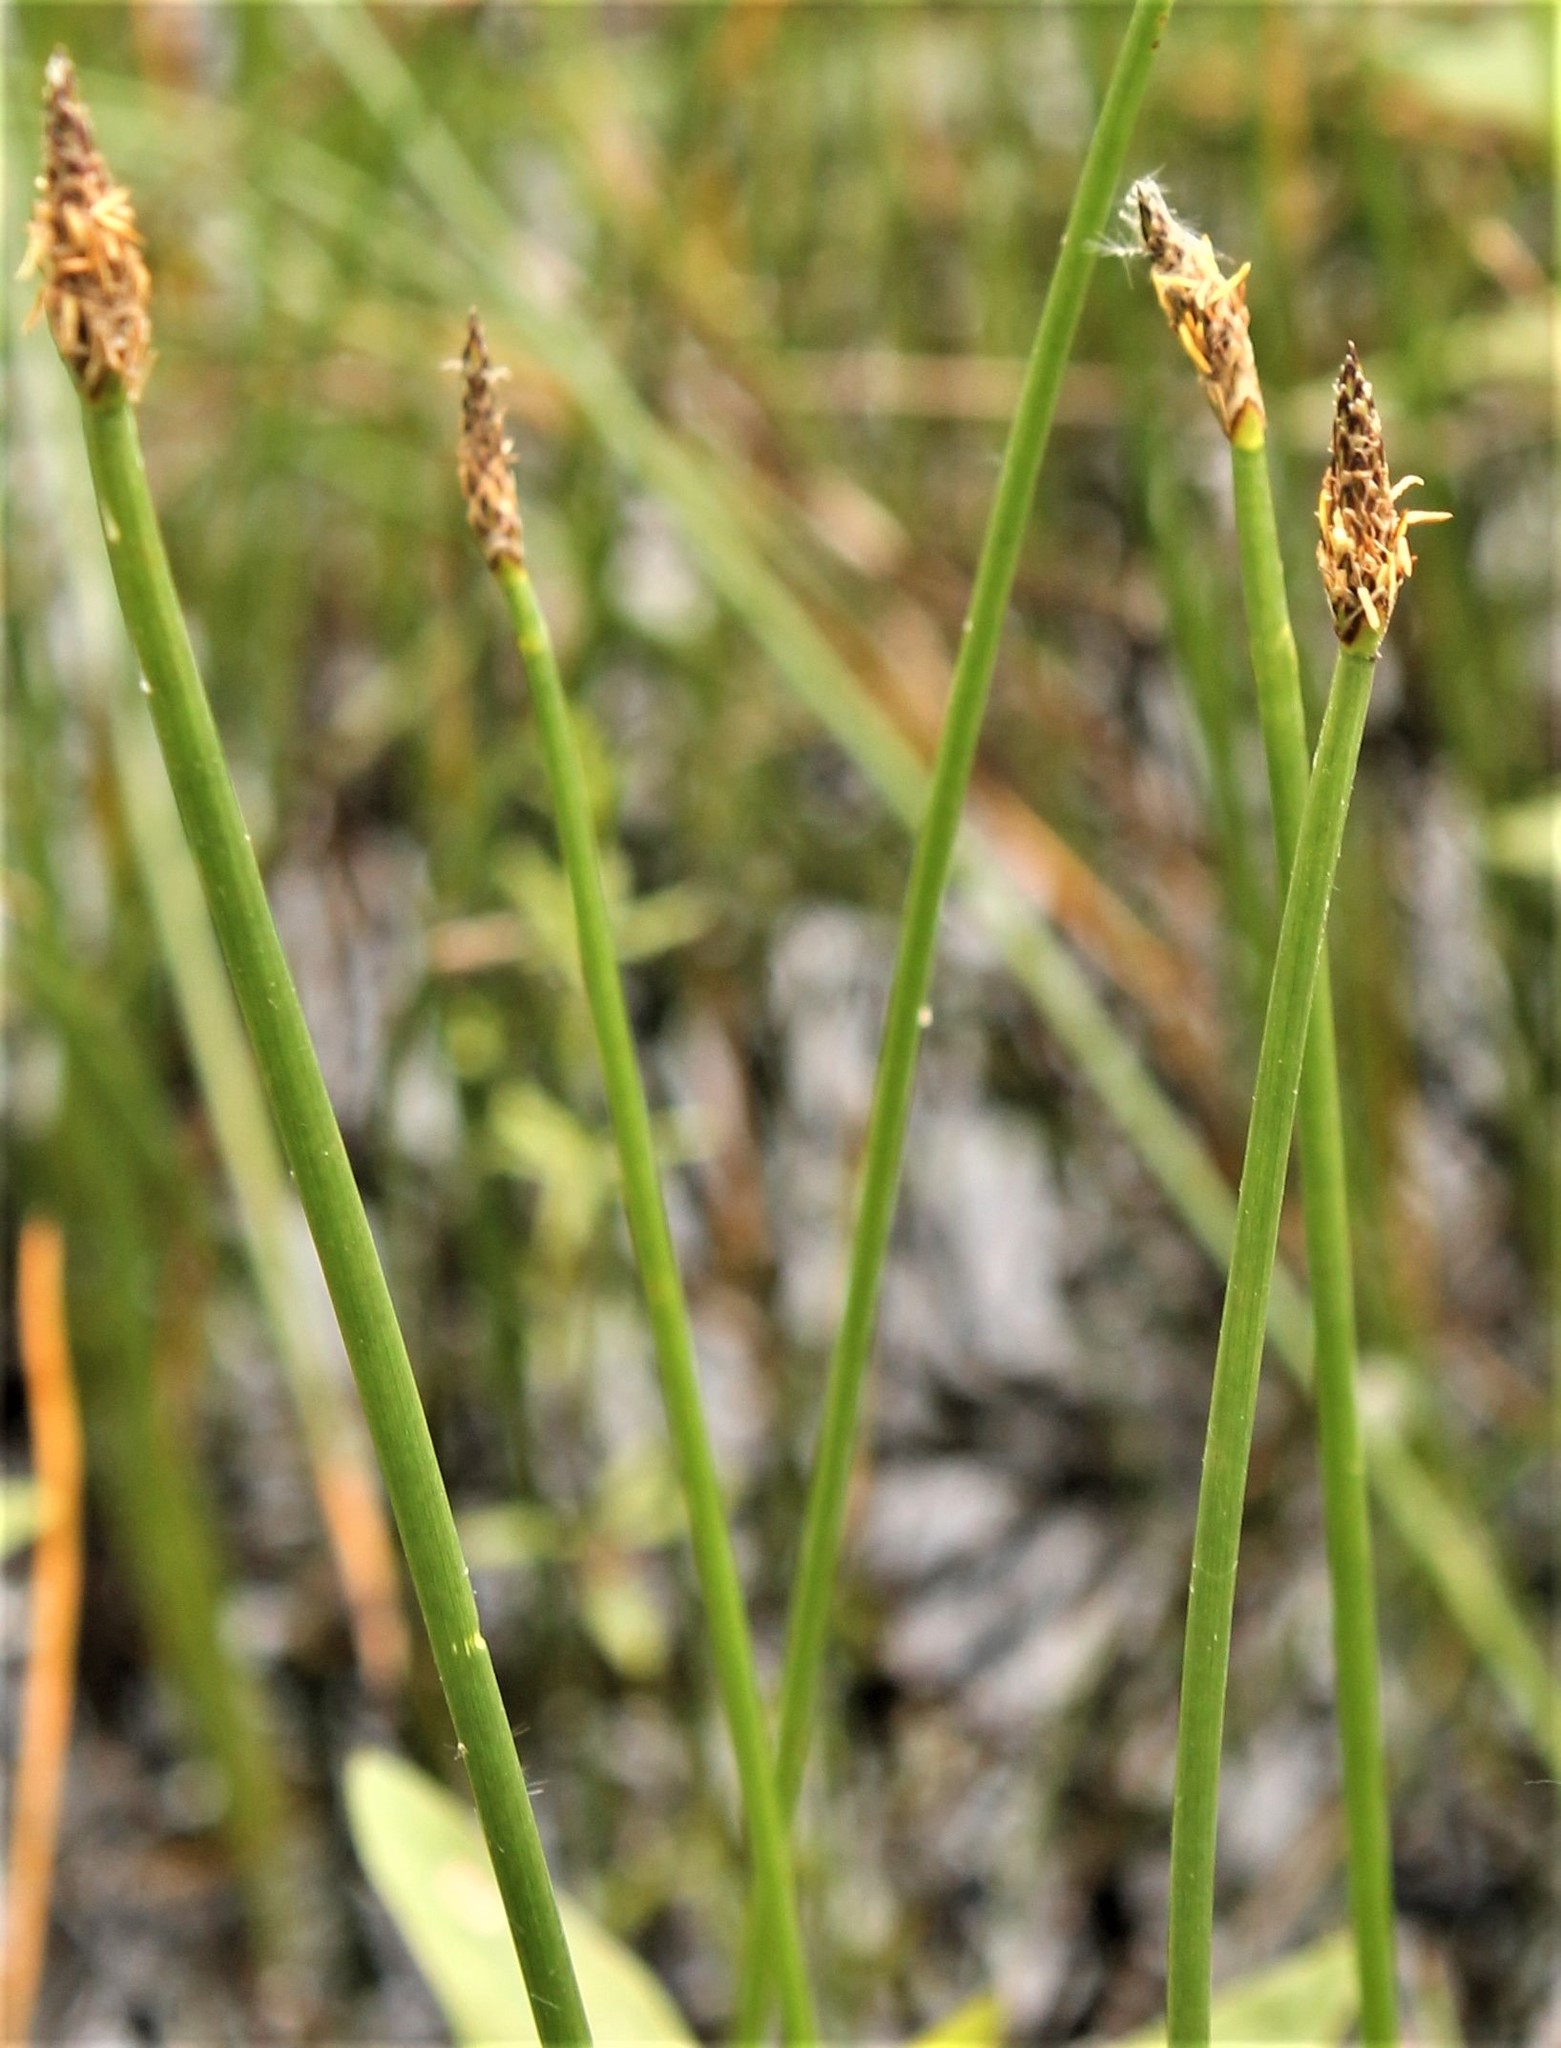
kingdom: Plantae
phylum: Tracheophyta
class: Liliopsida
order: Poales
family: Cyperaceae
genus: Eleocharis
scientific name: Eleocharis palustris
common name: Common spike-rush
